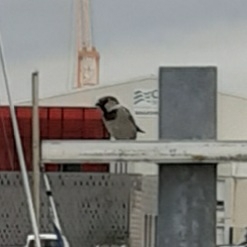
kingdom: Animalia
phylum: Chordata
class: Aves
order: Passeriformes
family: Passeridae
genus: Passer
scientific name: Passer domesticus
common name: House sparrow
